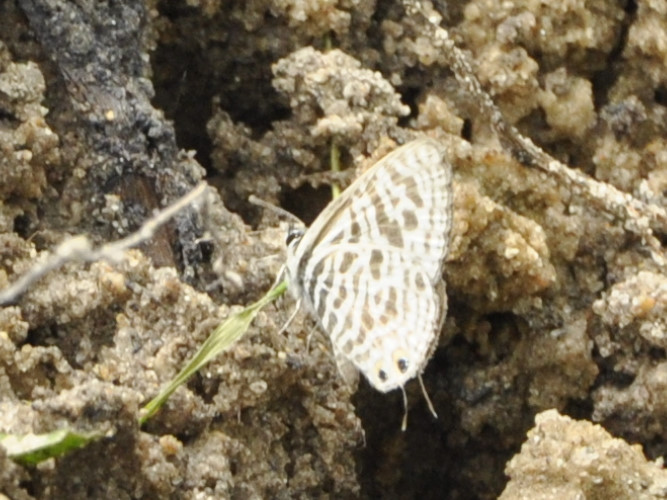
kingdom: Animalia
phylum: Arthropoda
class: Insecta
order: Lepidoptera
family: Lycaenidae
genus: Leptotes
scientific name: Leptotes
